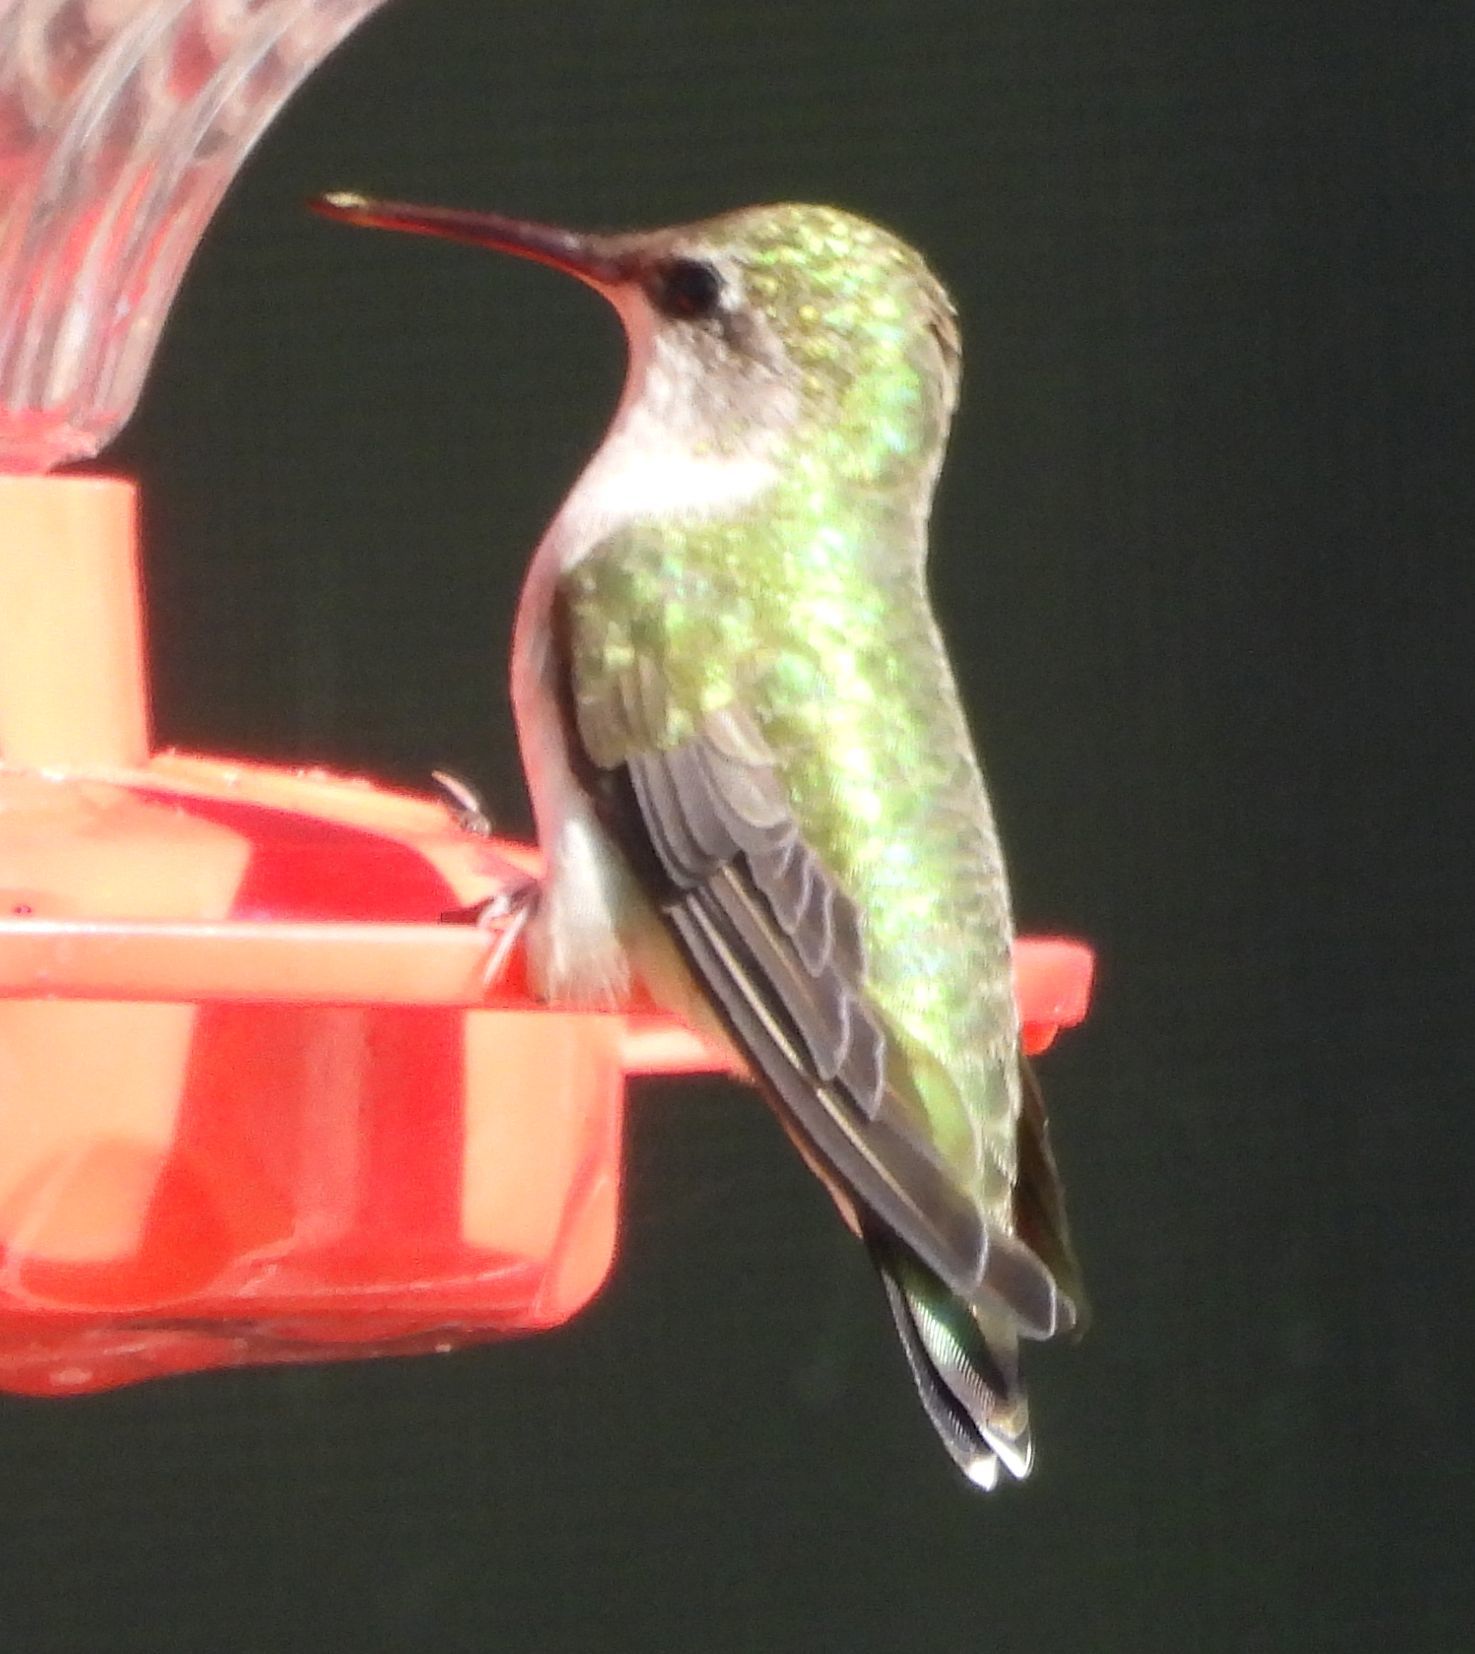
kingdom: Animalia
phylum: Chordata
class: Aves
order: Apodiformes
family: Trochilidae
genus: Archilochus
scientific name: Archilochus colubris
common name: Ruby-throated hummingbird
